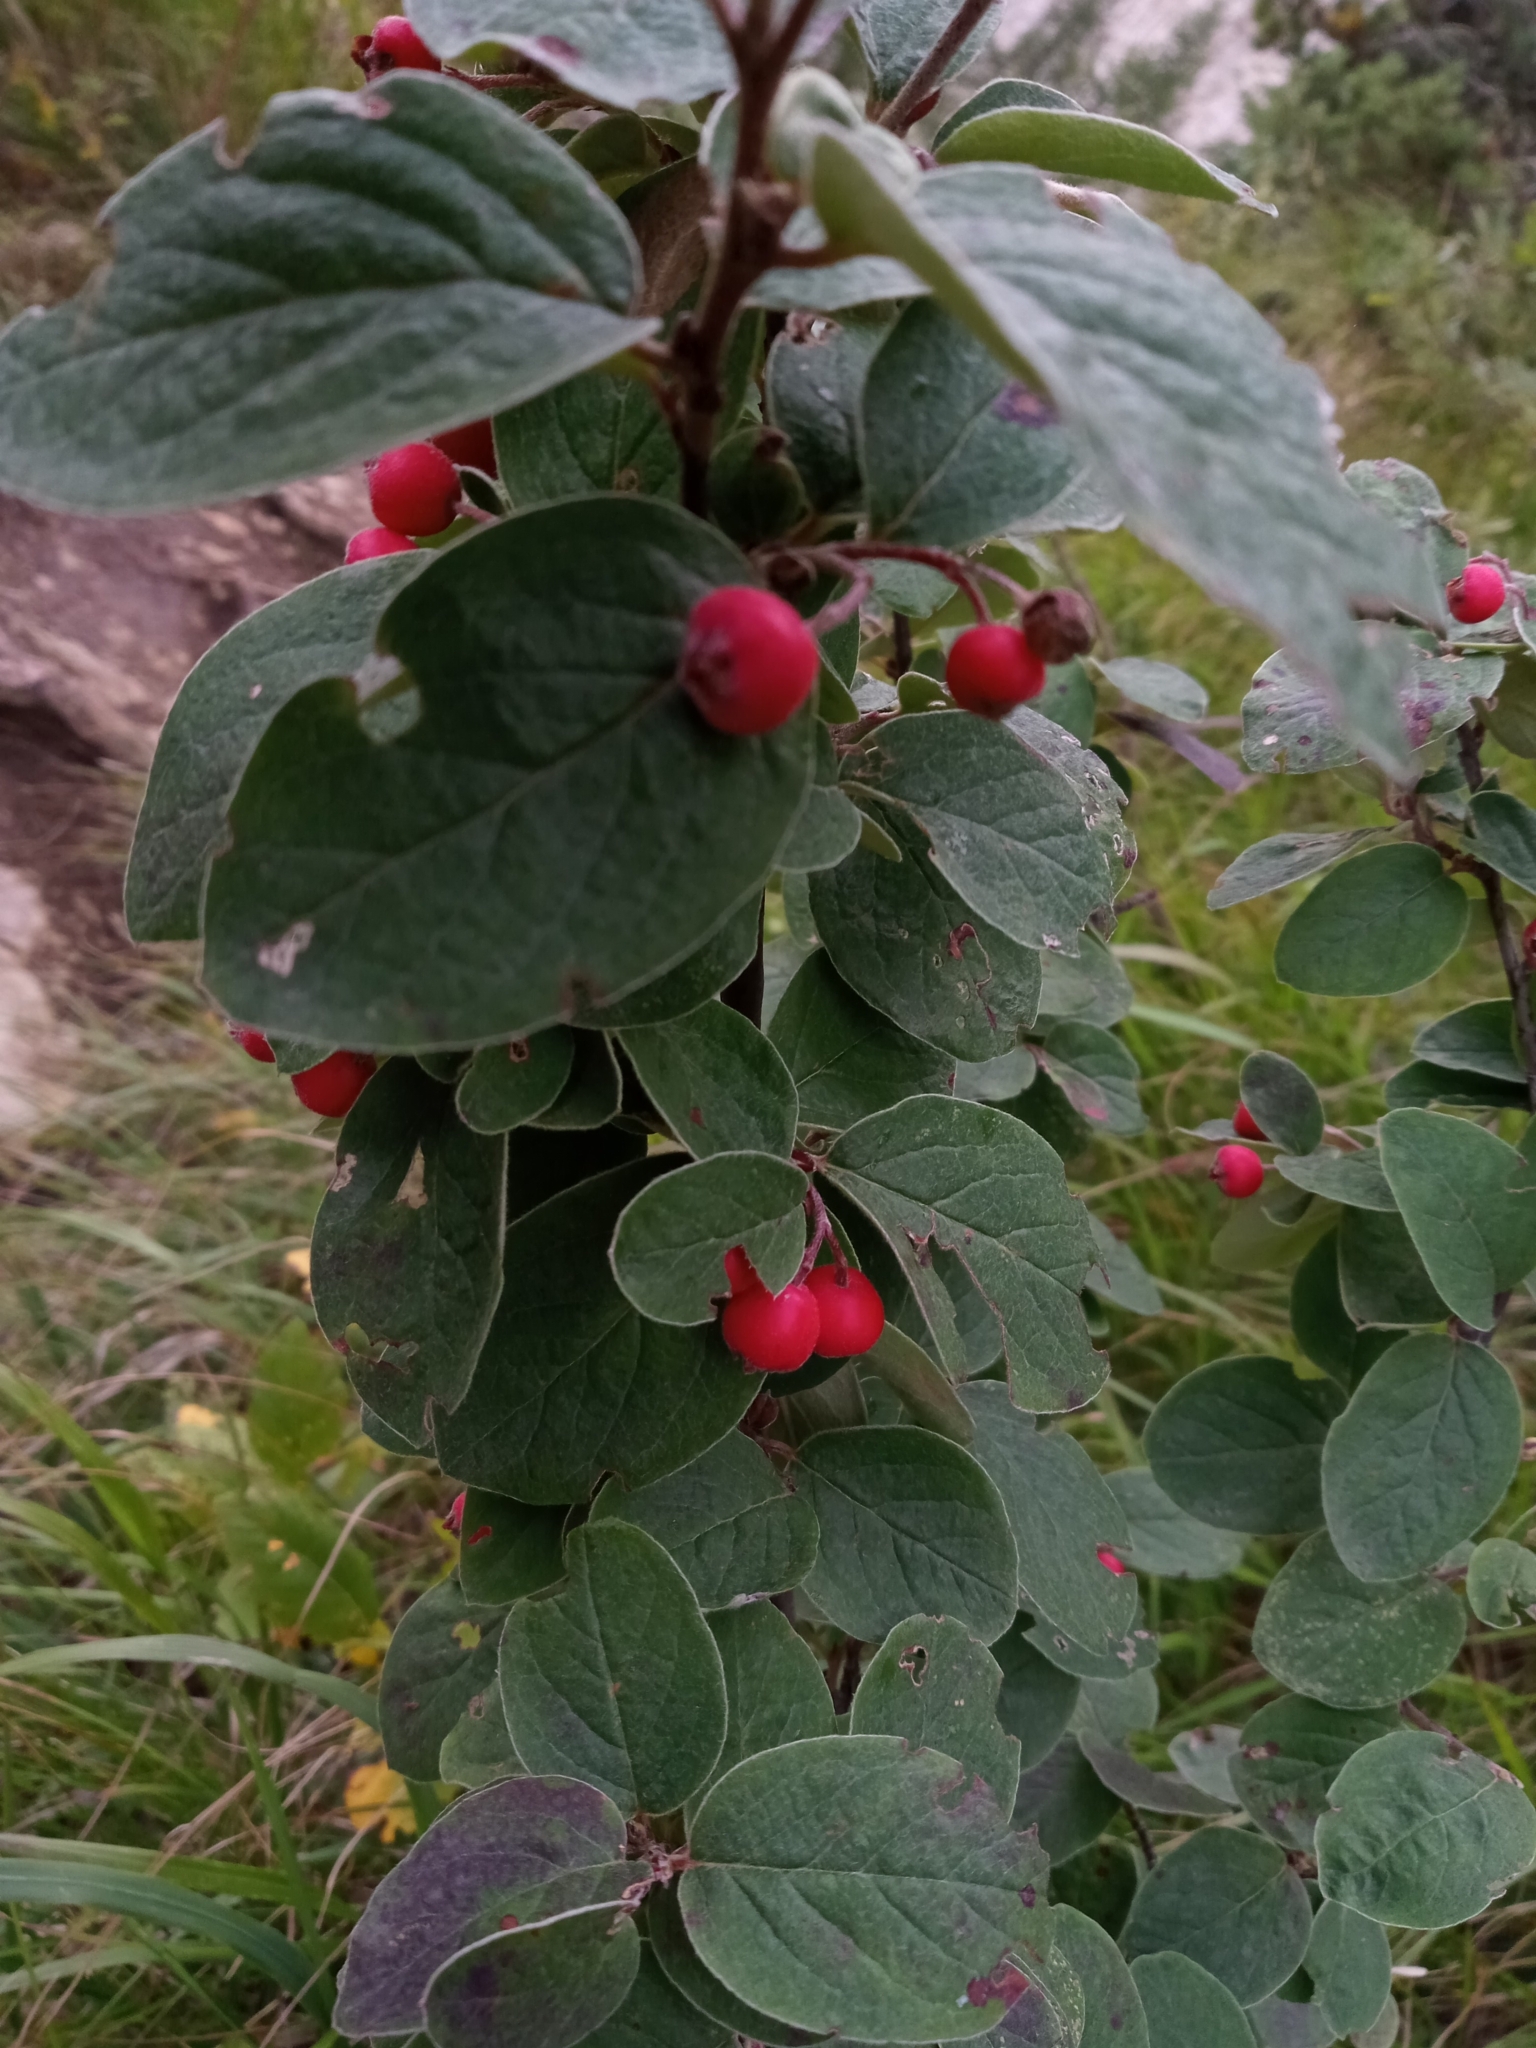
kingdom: Plantae
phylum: Tracheophyta
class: Magnoliopsida
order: Rosales
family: Rosaceae
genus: Cotoneaster
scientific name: Cotoneaster tomentosus
